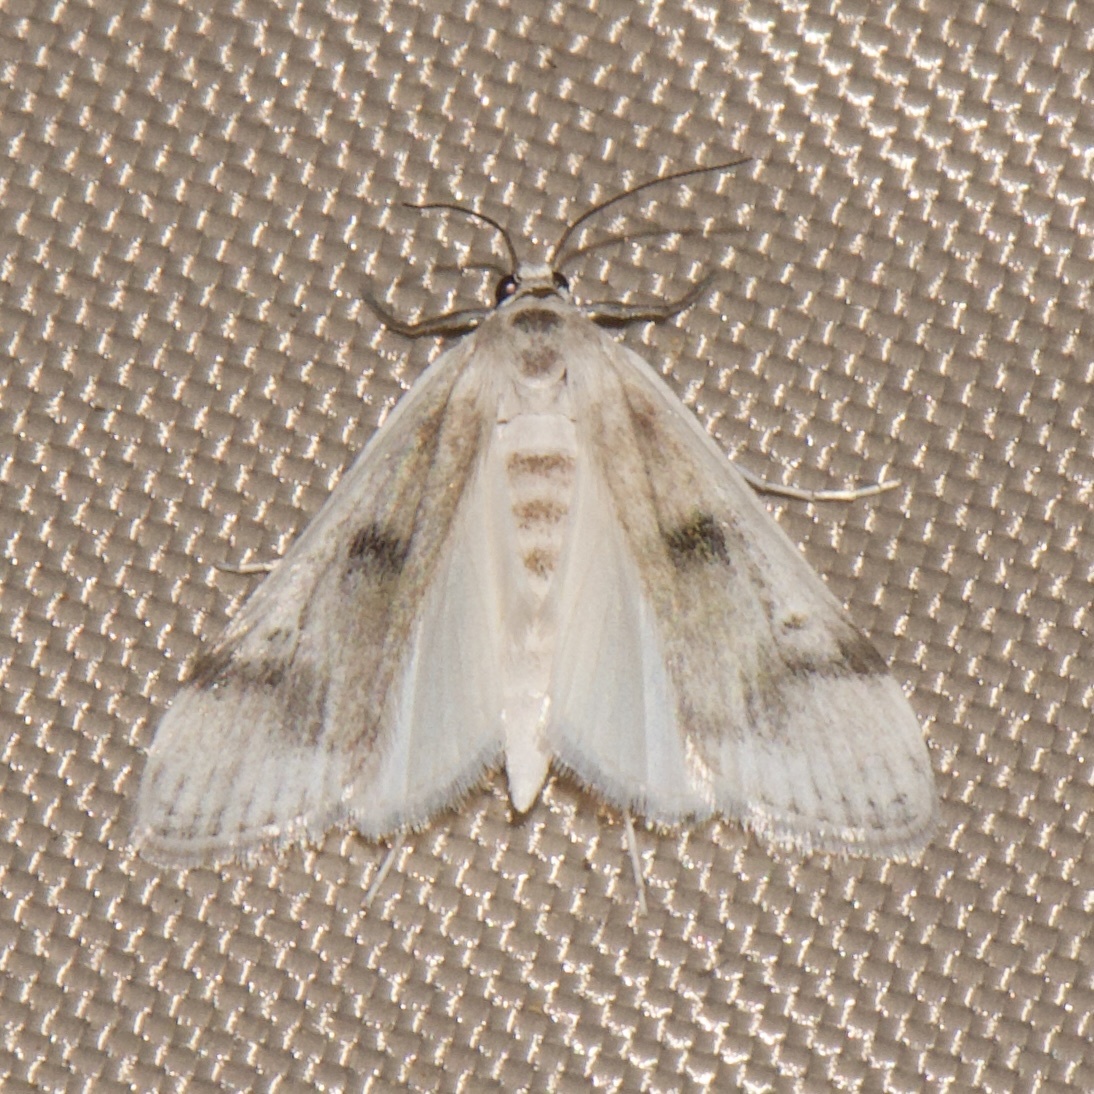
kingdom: Animalia
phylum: Arthropoda
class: Insecta
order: Lepidoptera
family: Crambidae
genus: Parapoynx
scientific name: Parapoynx maculalis
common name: Polymorphic pondweed moth
